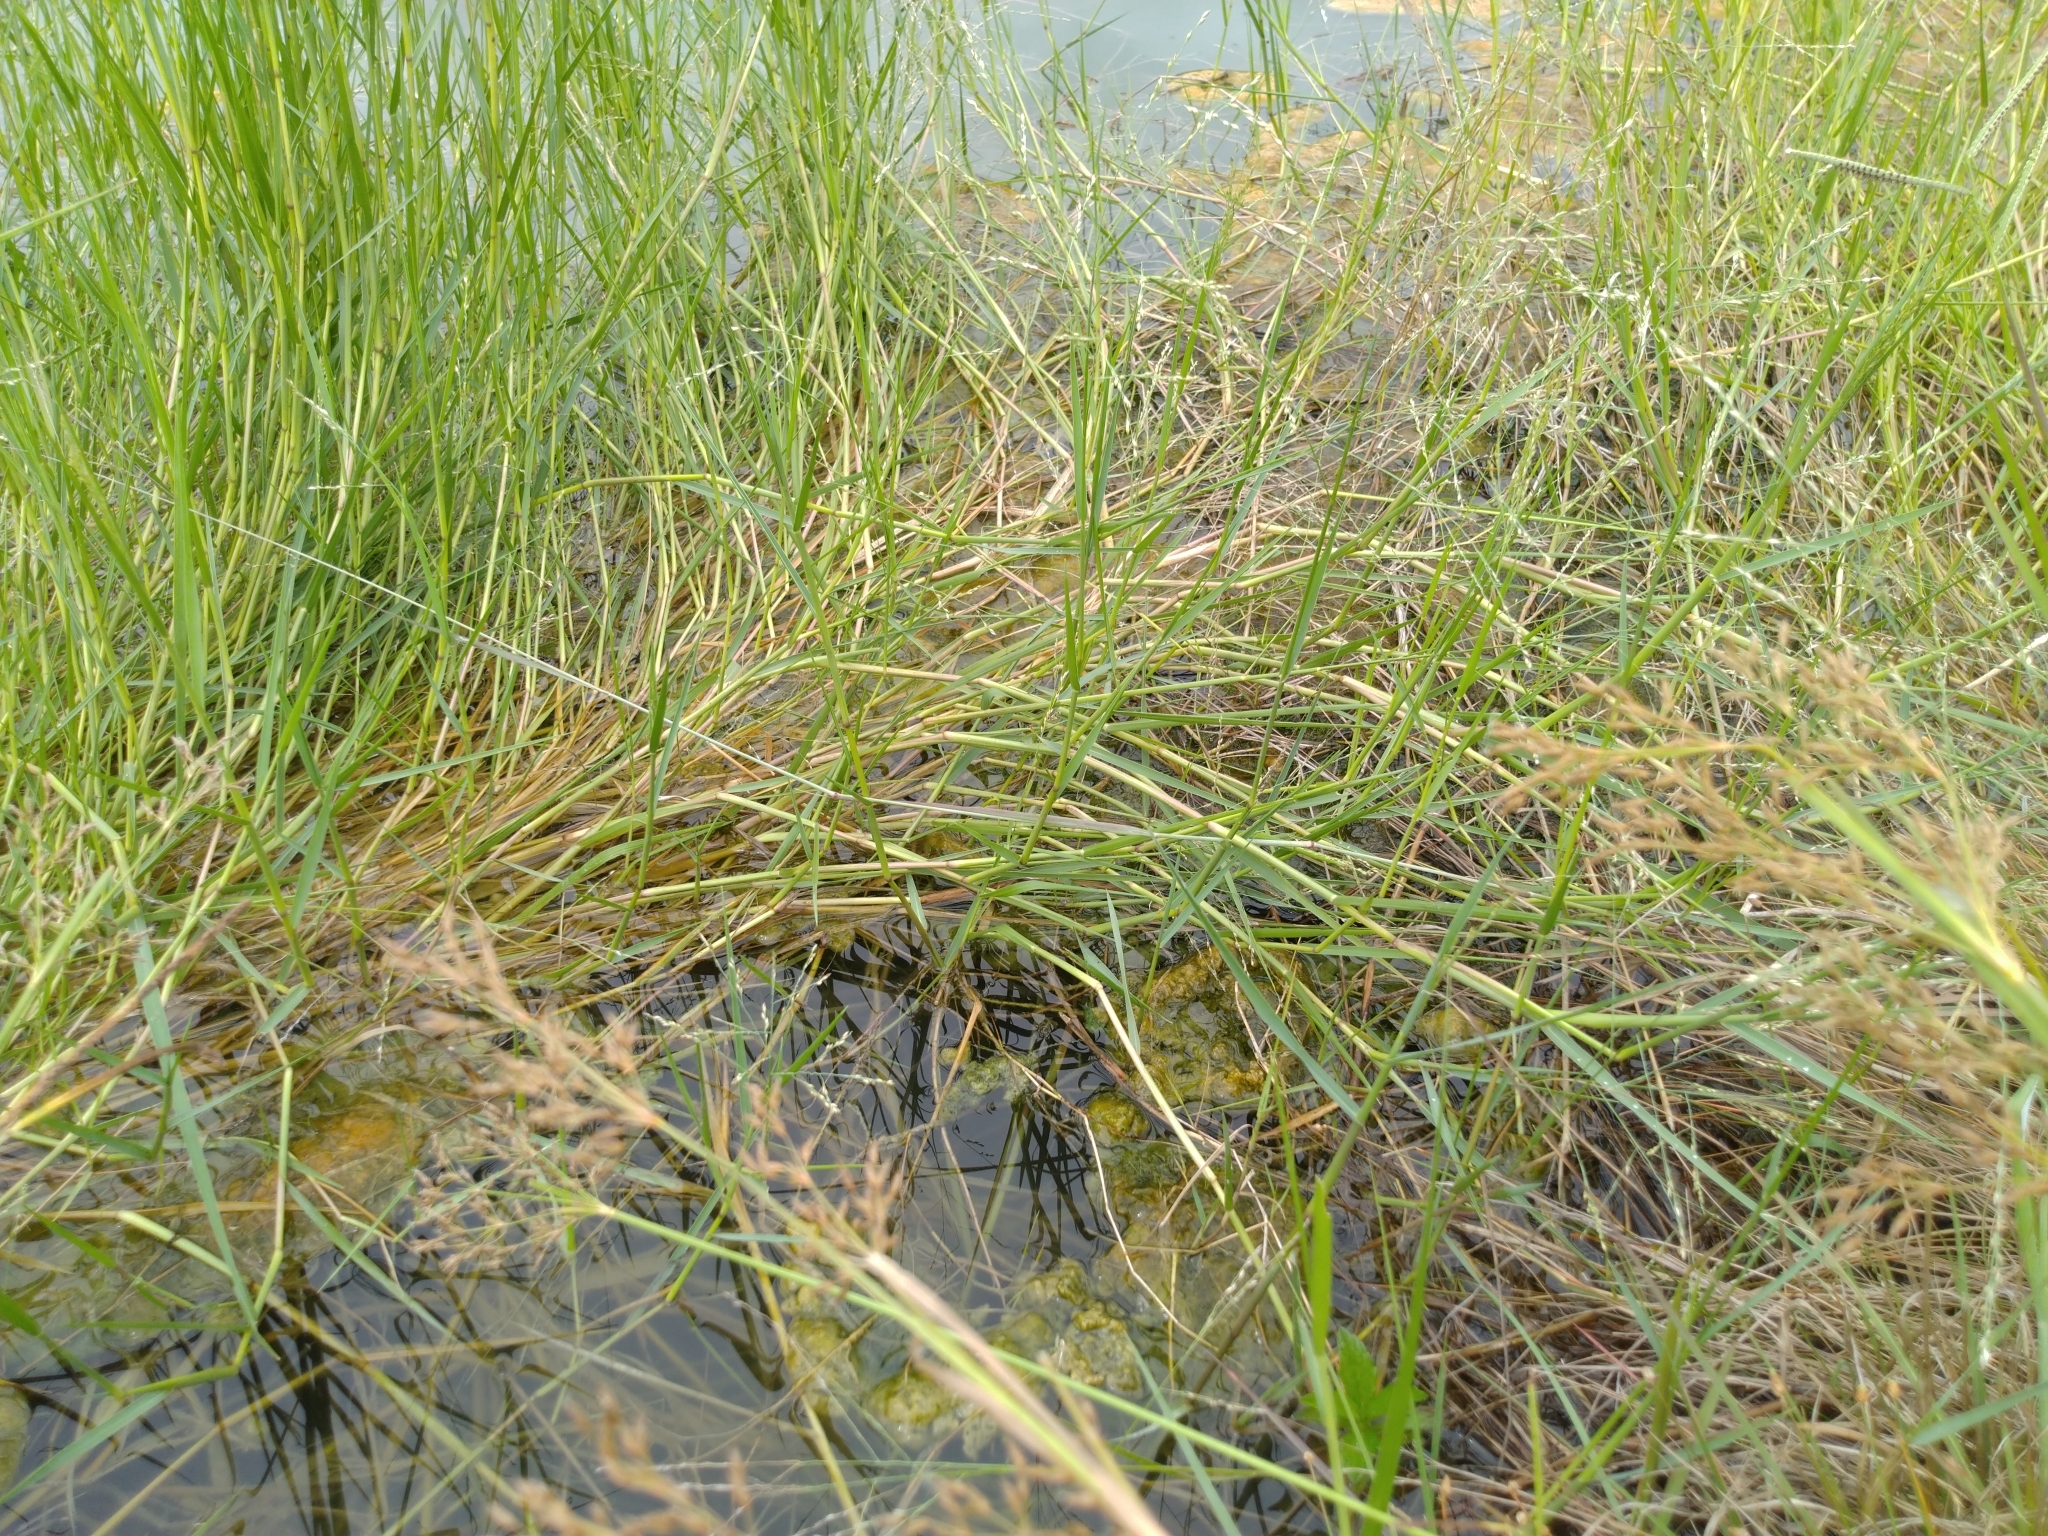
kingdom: Plantae
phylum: Tracheophyta
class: Liliopsida
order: Poales
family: Poaceae
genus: Leersia
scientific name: Leersia hexandra
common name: Southern cut grass
